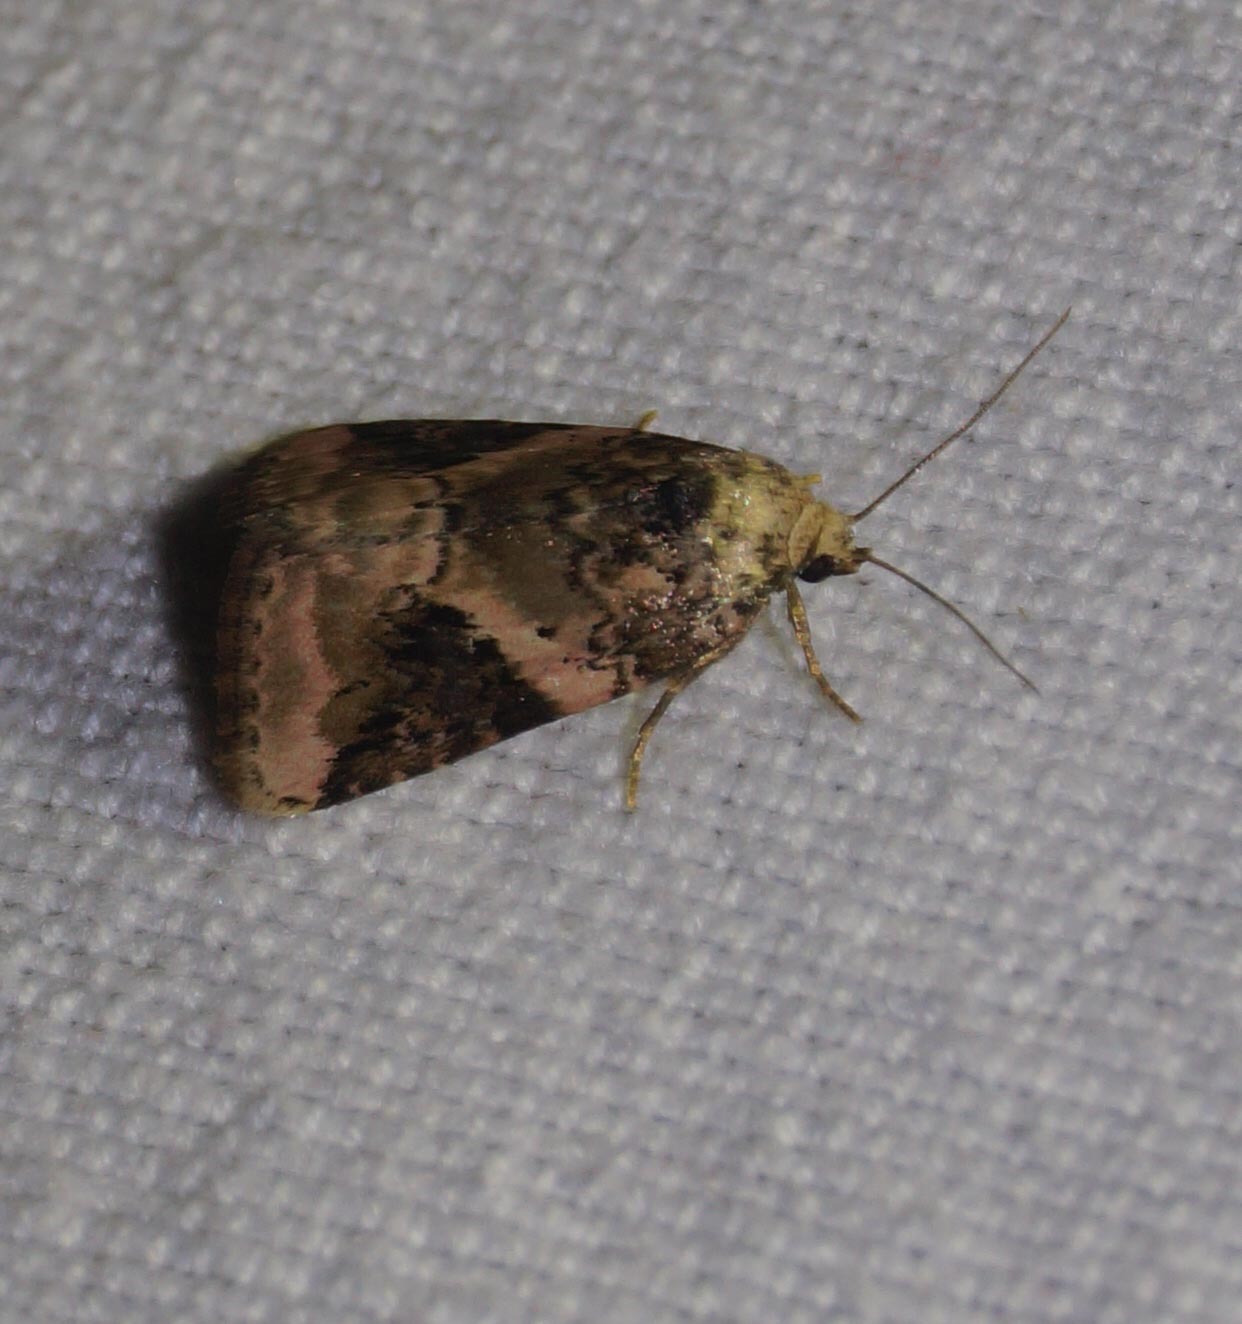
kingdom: Animalia
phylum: Arthropoda
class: Insecta
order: Lepidoptera
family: Noctuidae
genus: Pseudeustrotia
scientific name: Pseudeustrotia candidula
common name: Shining marbled
